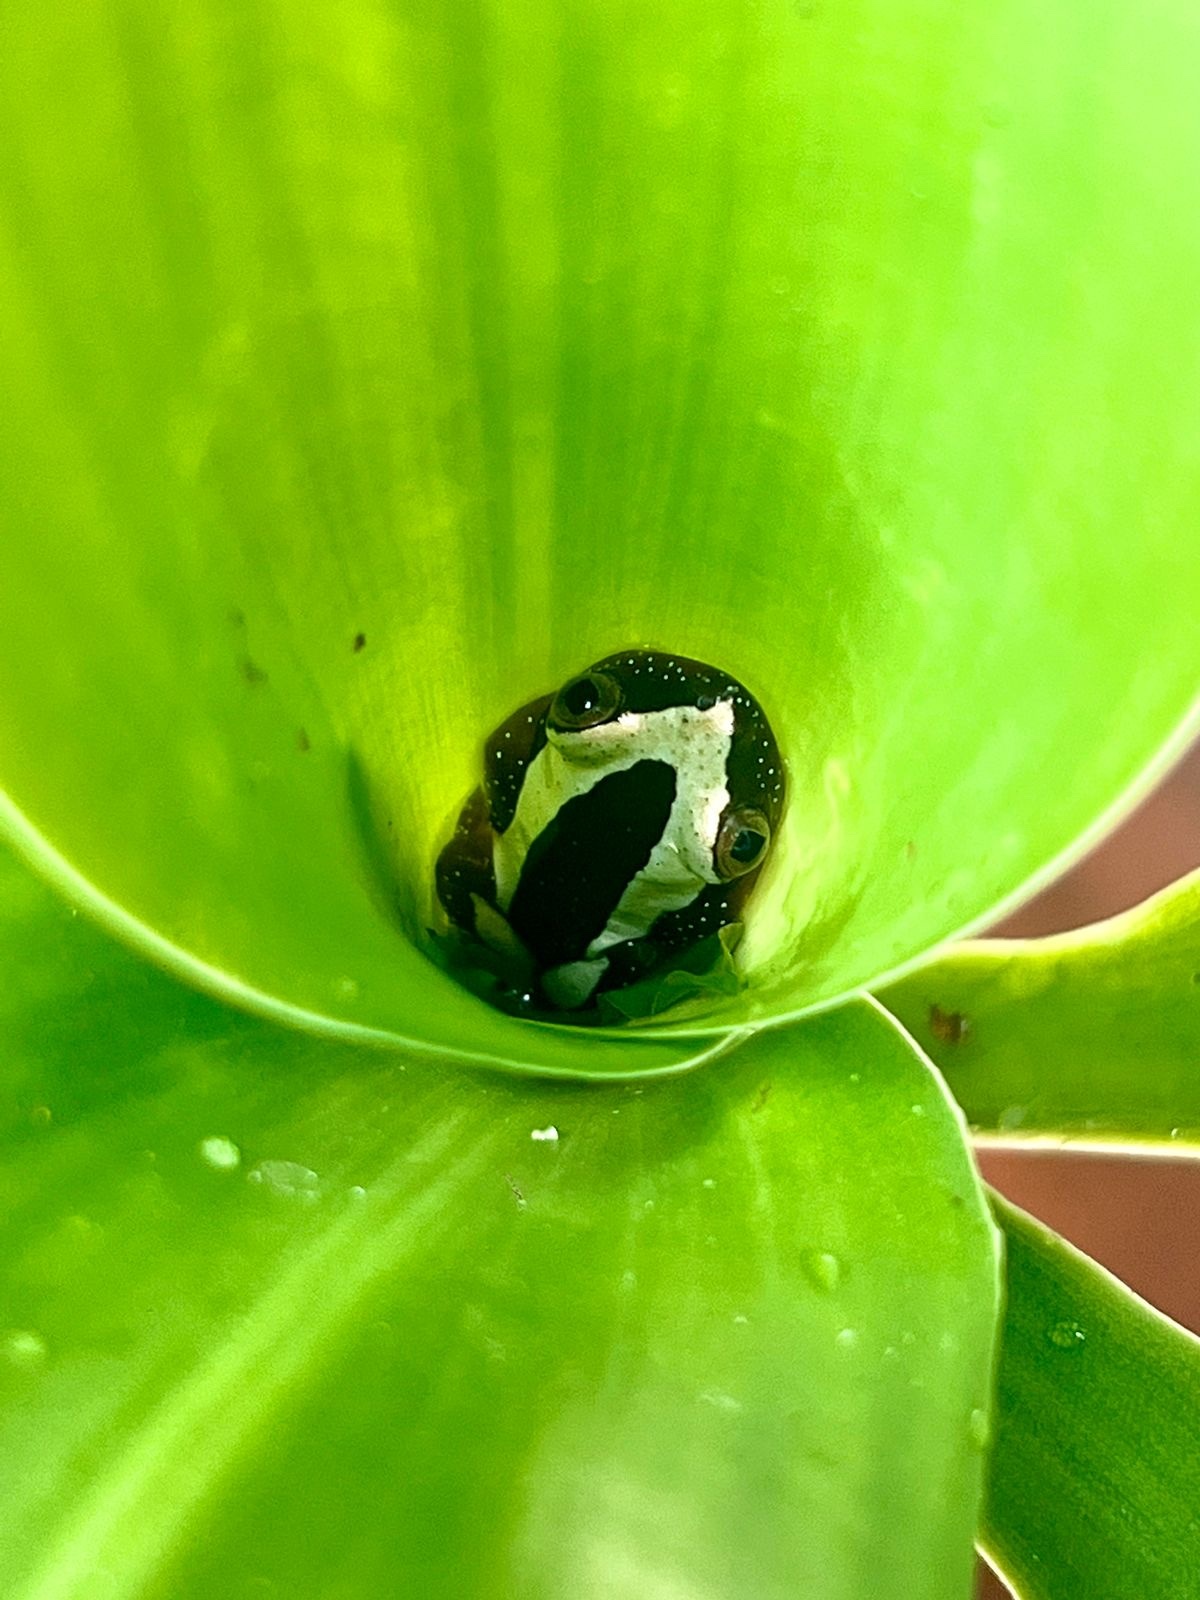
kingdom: Animalia
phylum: Chordata
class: Amphibia
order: Anura
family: Hyperoliidae
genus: Afrixalus
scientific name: Afrixalus fornasini
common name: Fornasini's spiny reed frog
